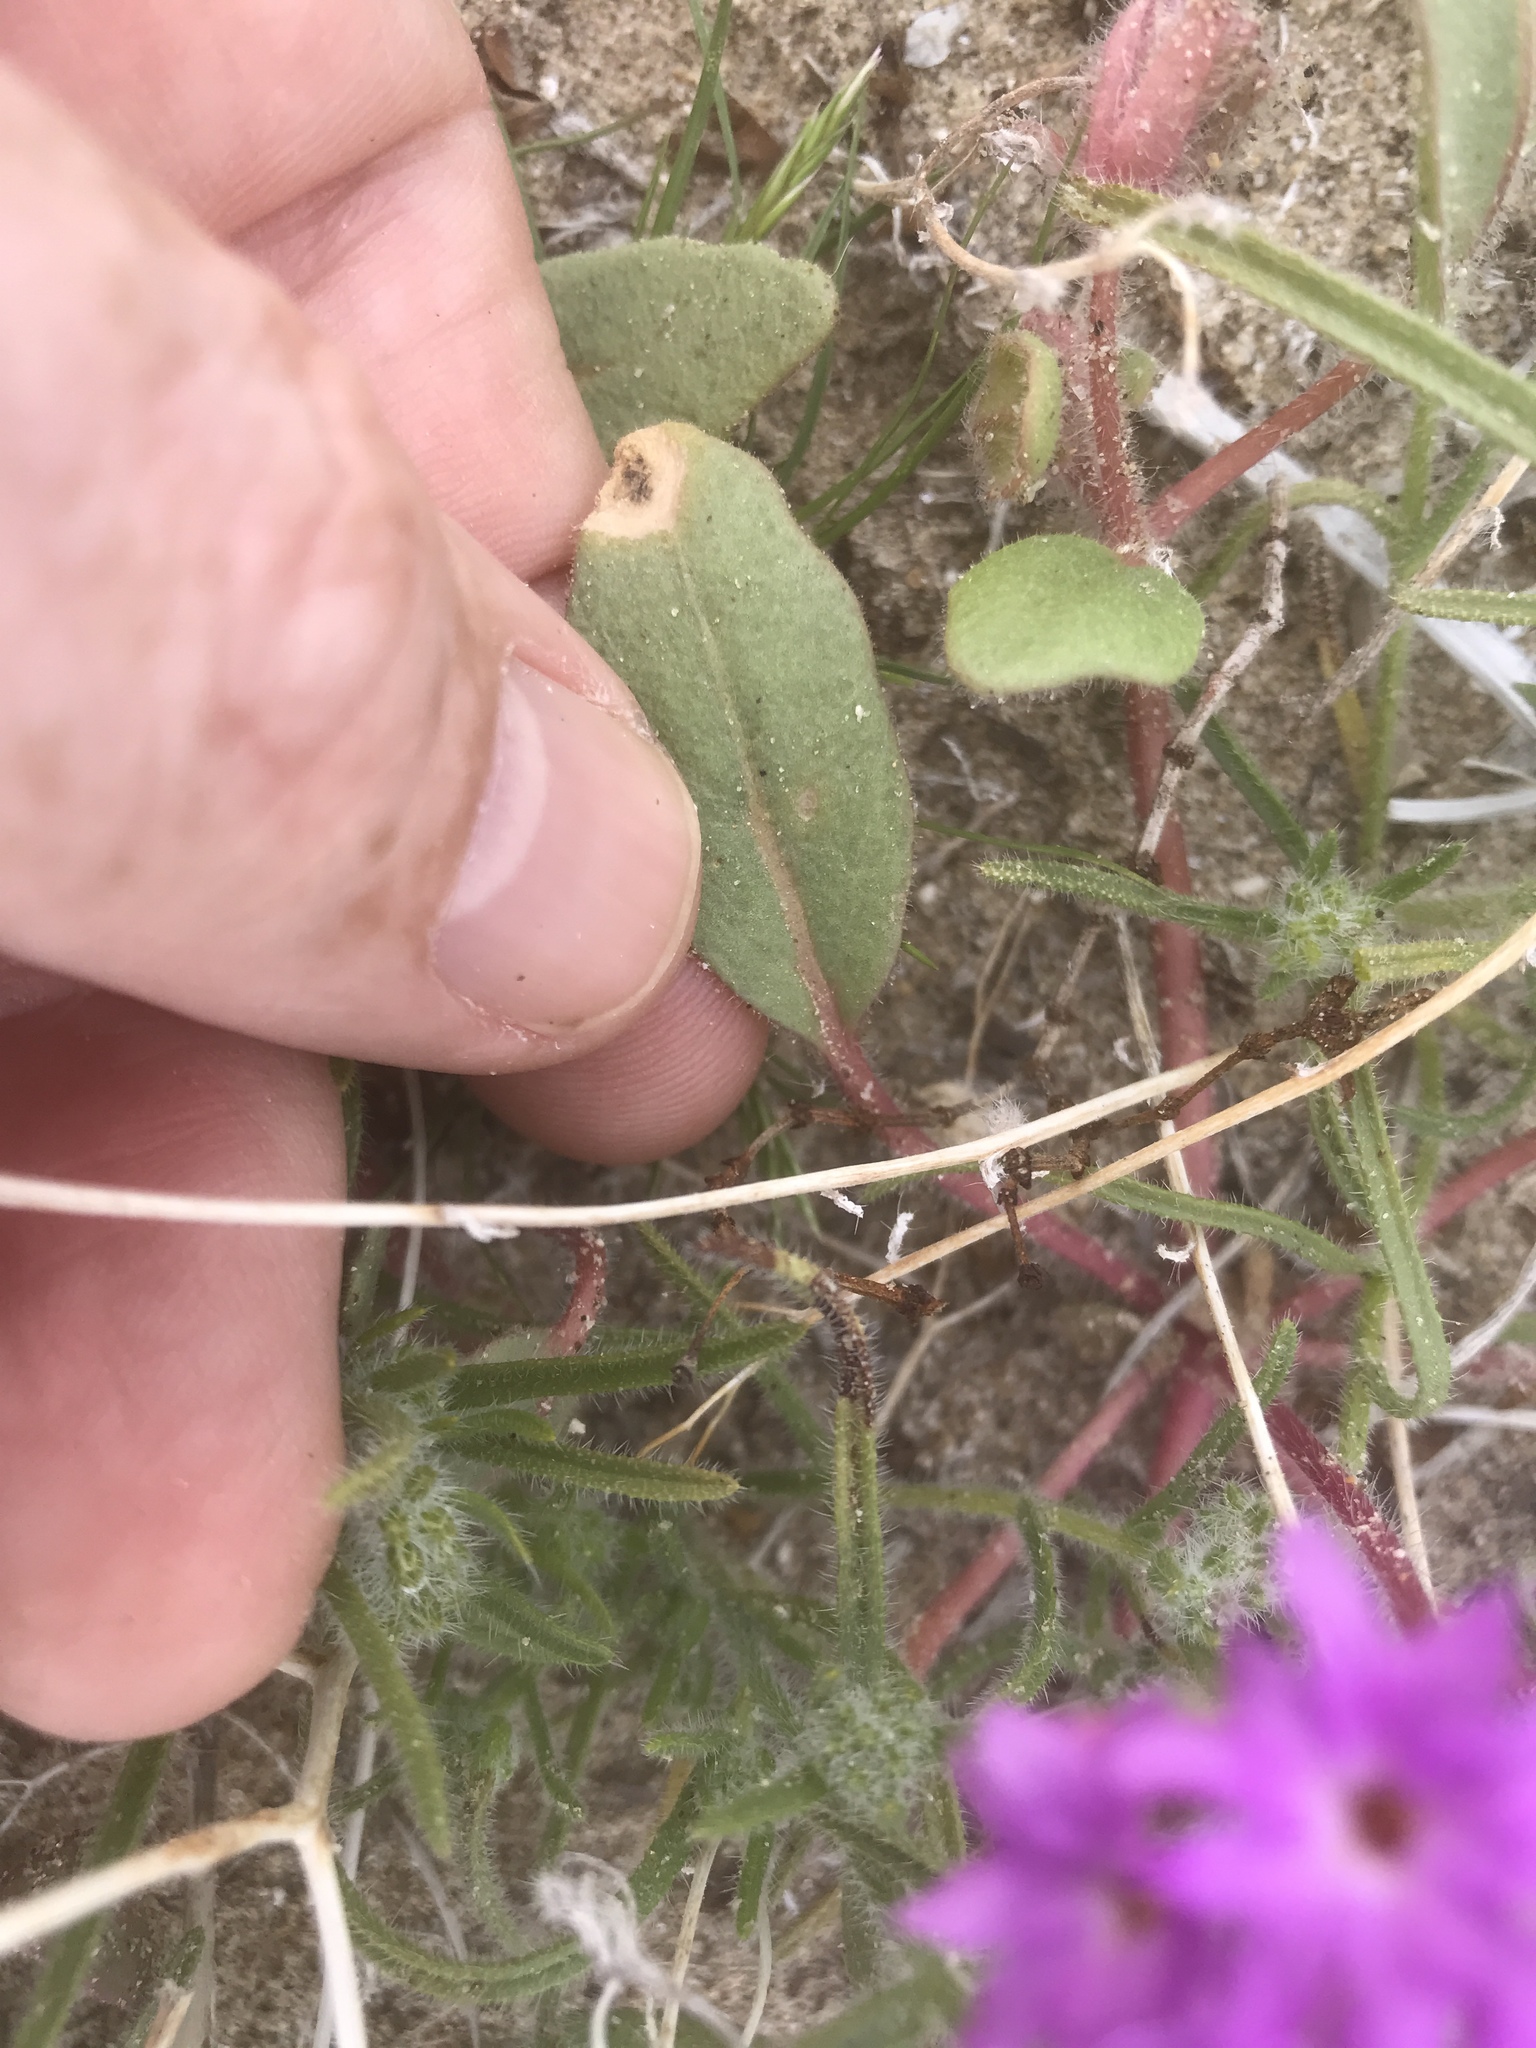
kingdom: Plantae
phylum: Tracheophyta
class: Magnoliopsida
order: Caryophyllales
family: Nyctaginaceae
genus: Abronia
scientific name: Abronia villosa
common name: Desert sand-verbena
